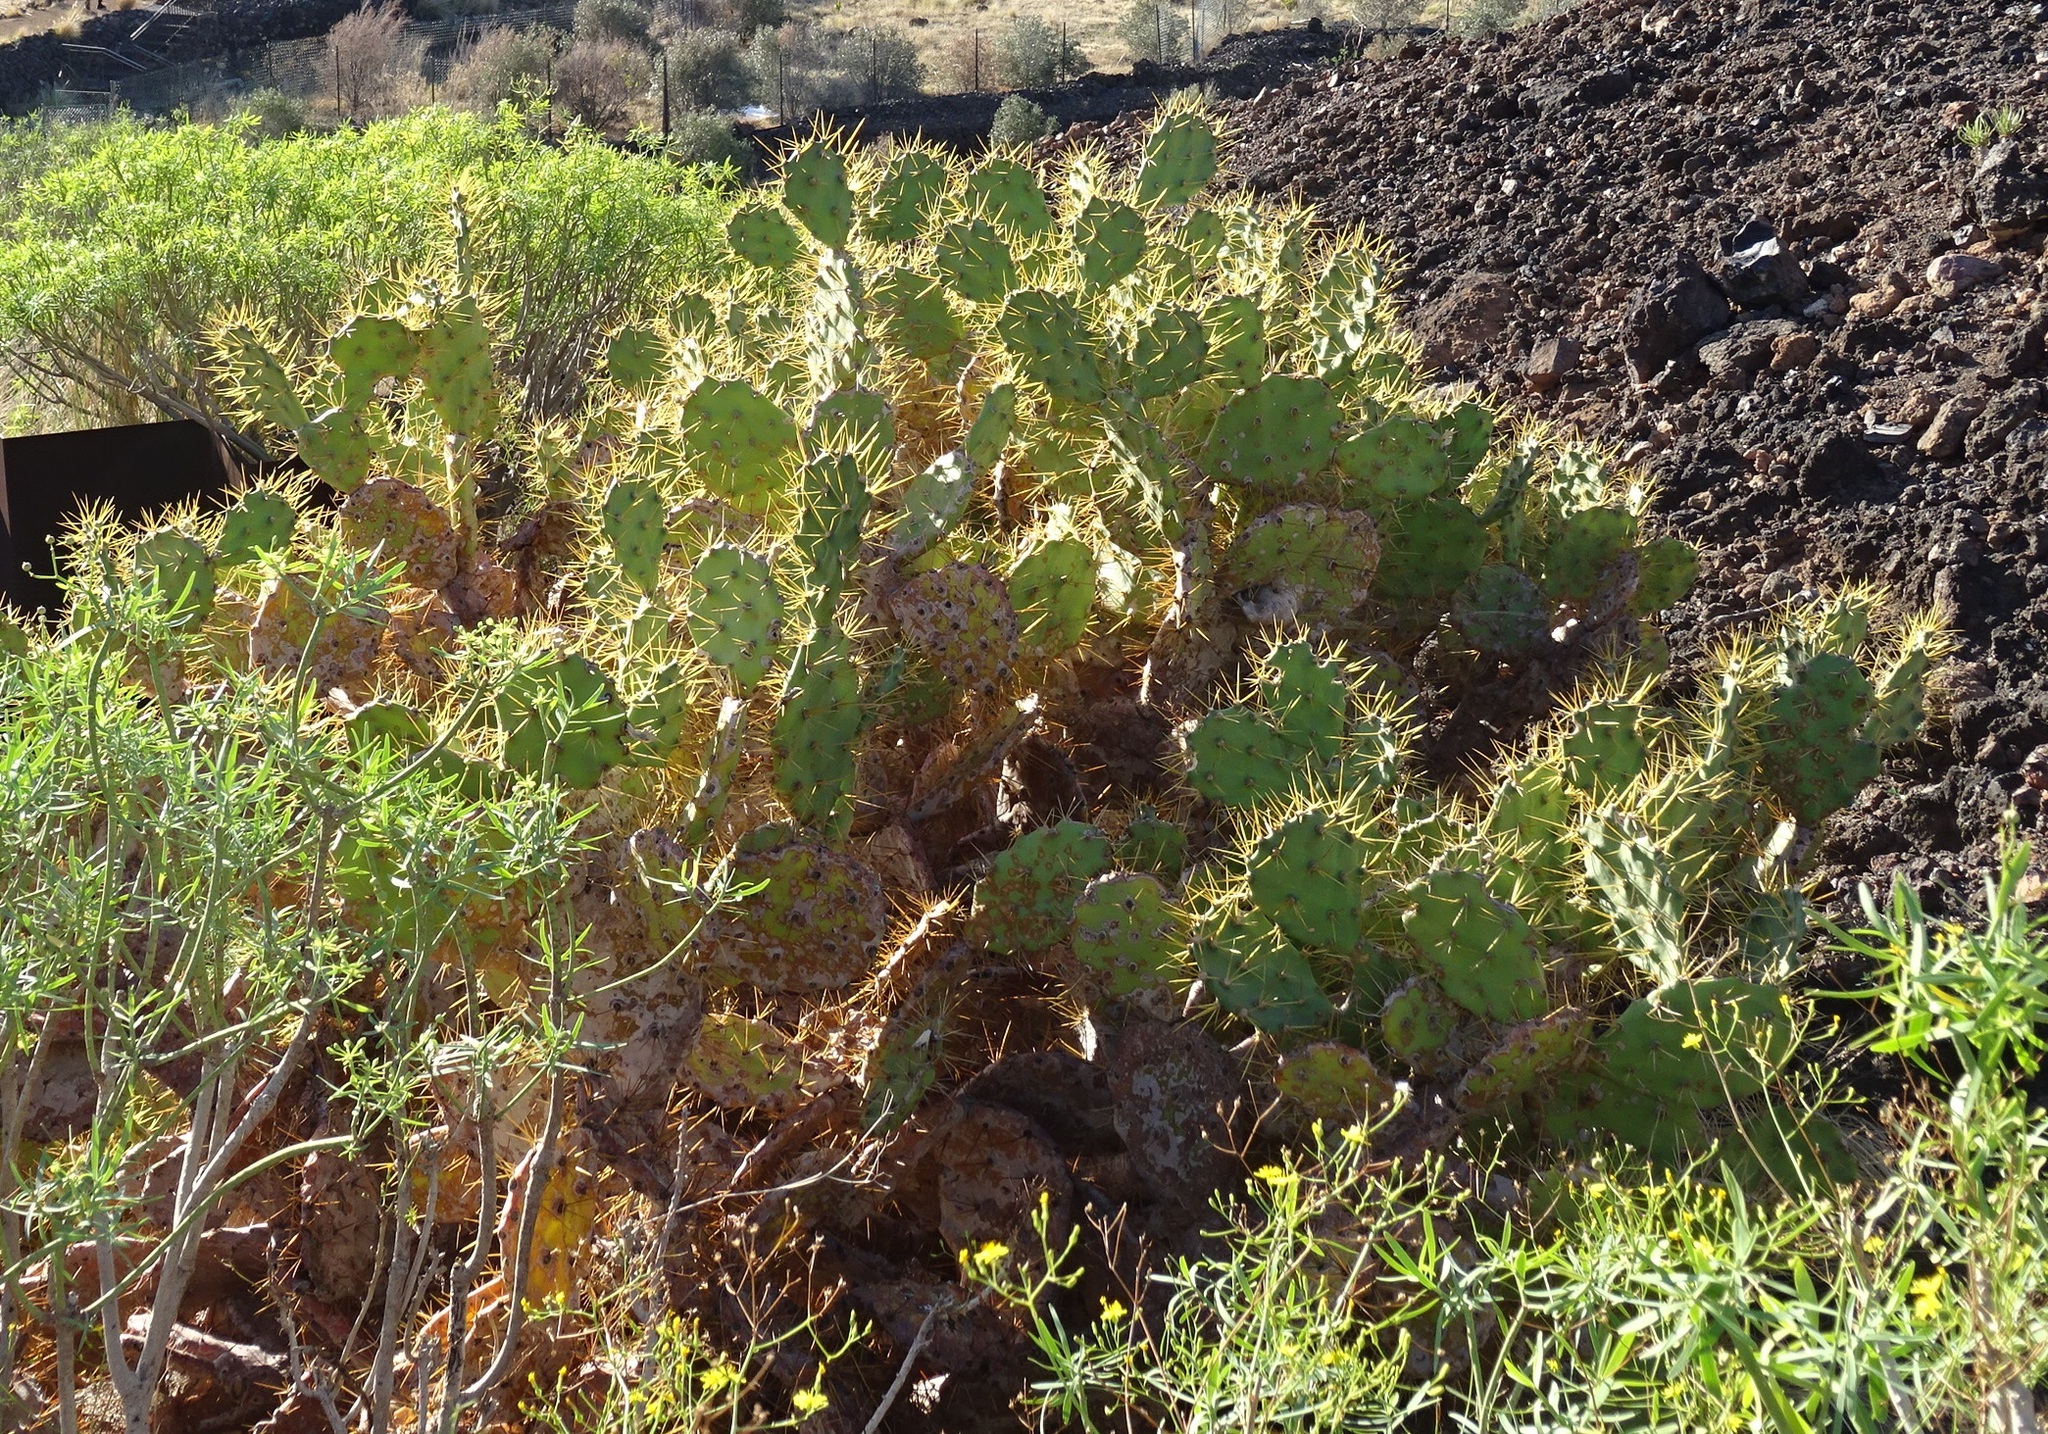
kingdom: Plantae
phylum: Tracheophyta
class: Magnoliopsida
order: Caryophyllales
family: Cactaceae
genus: Opuntia
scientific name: Opuntia stricta
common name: Erect pricklypear
